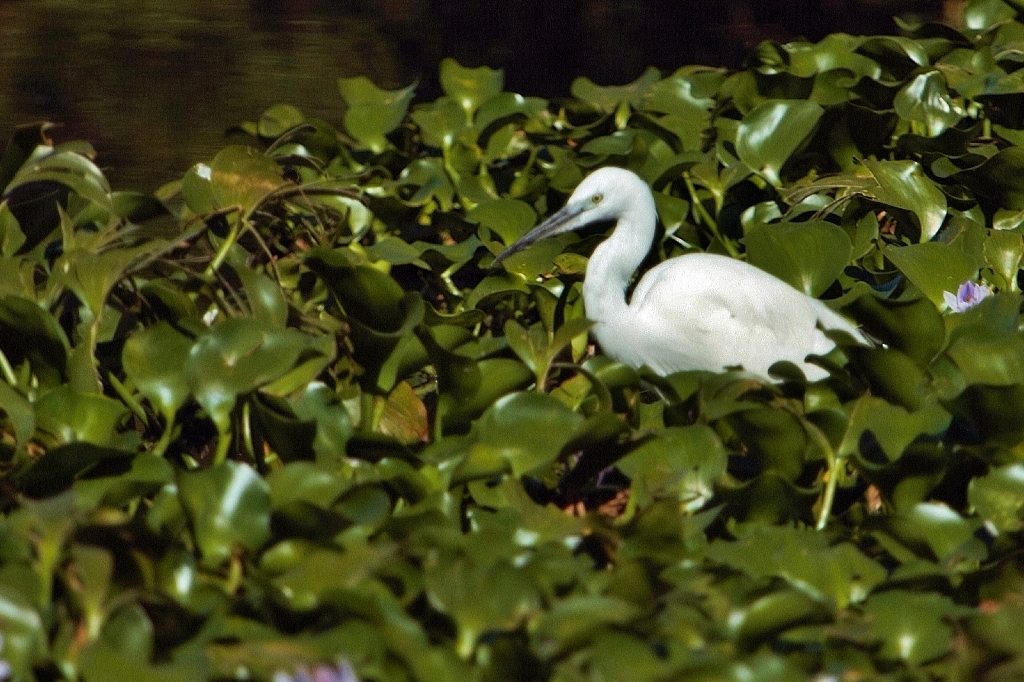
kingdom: Animalia
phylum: Chordata
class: Aves
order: Pelecaniformes
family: Ardeidae
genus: Egretta
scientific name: Egretta garzetta
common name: Little egret
